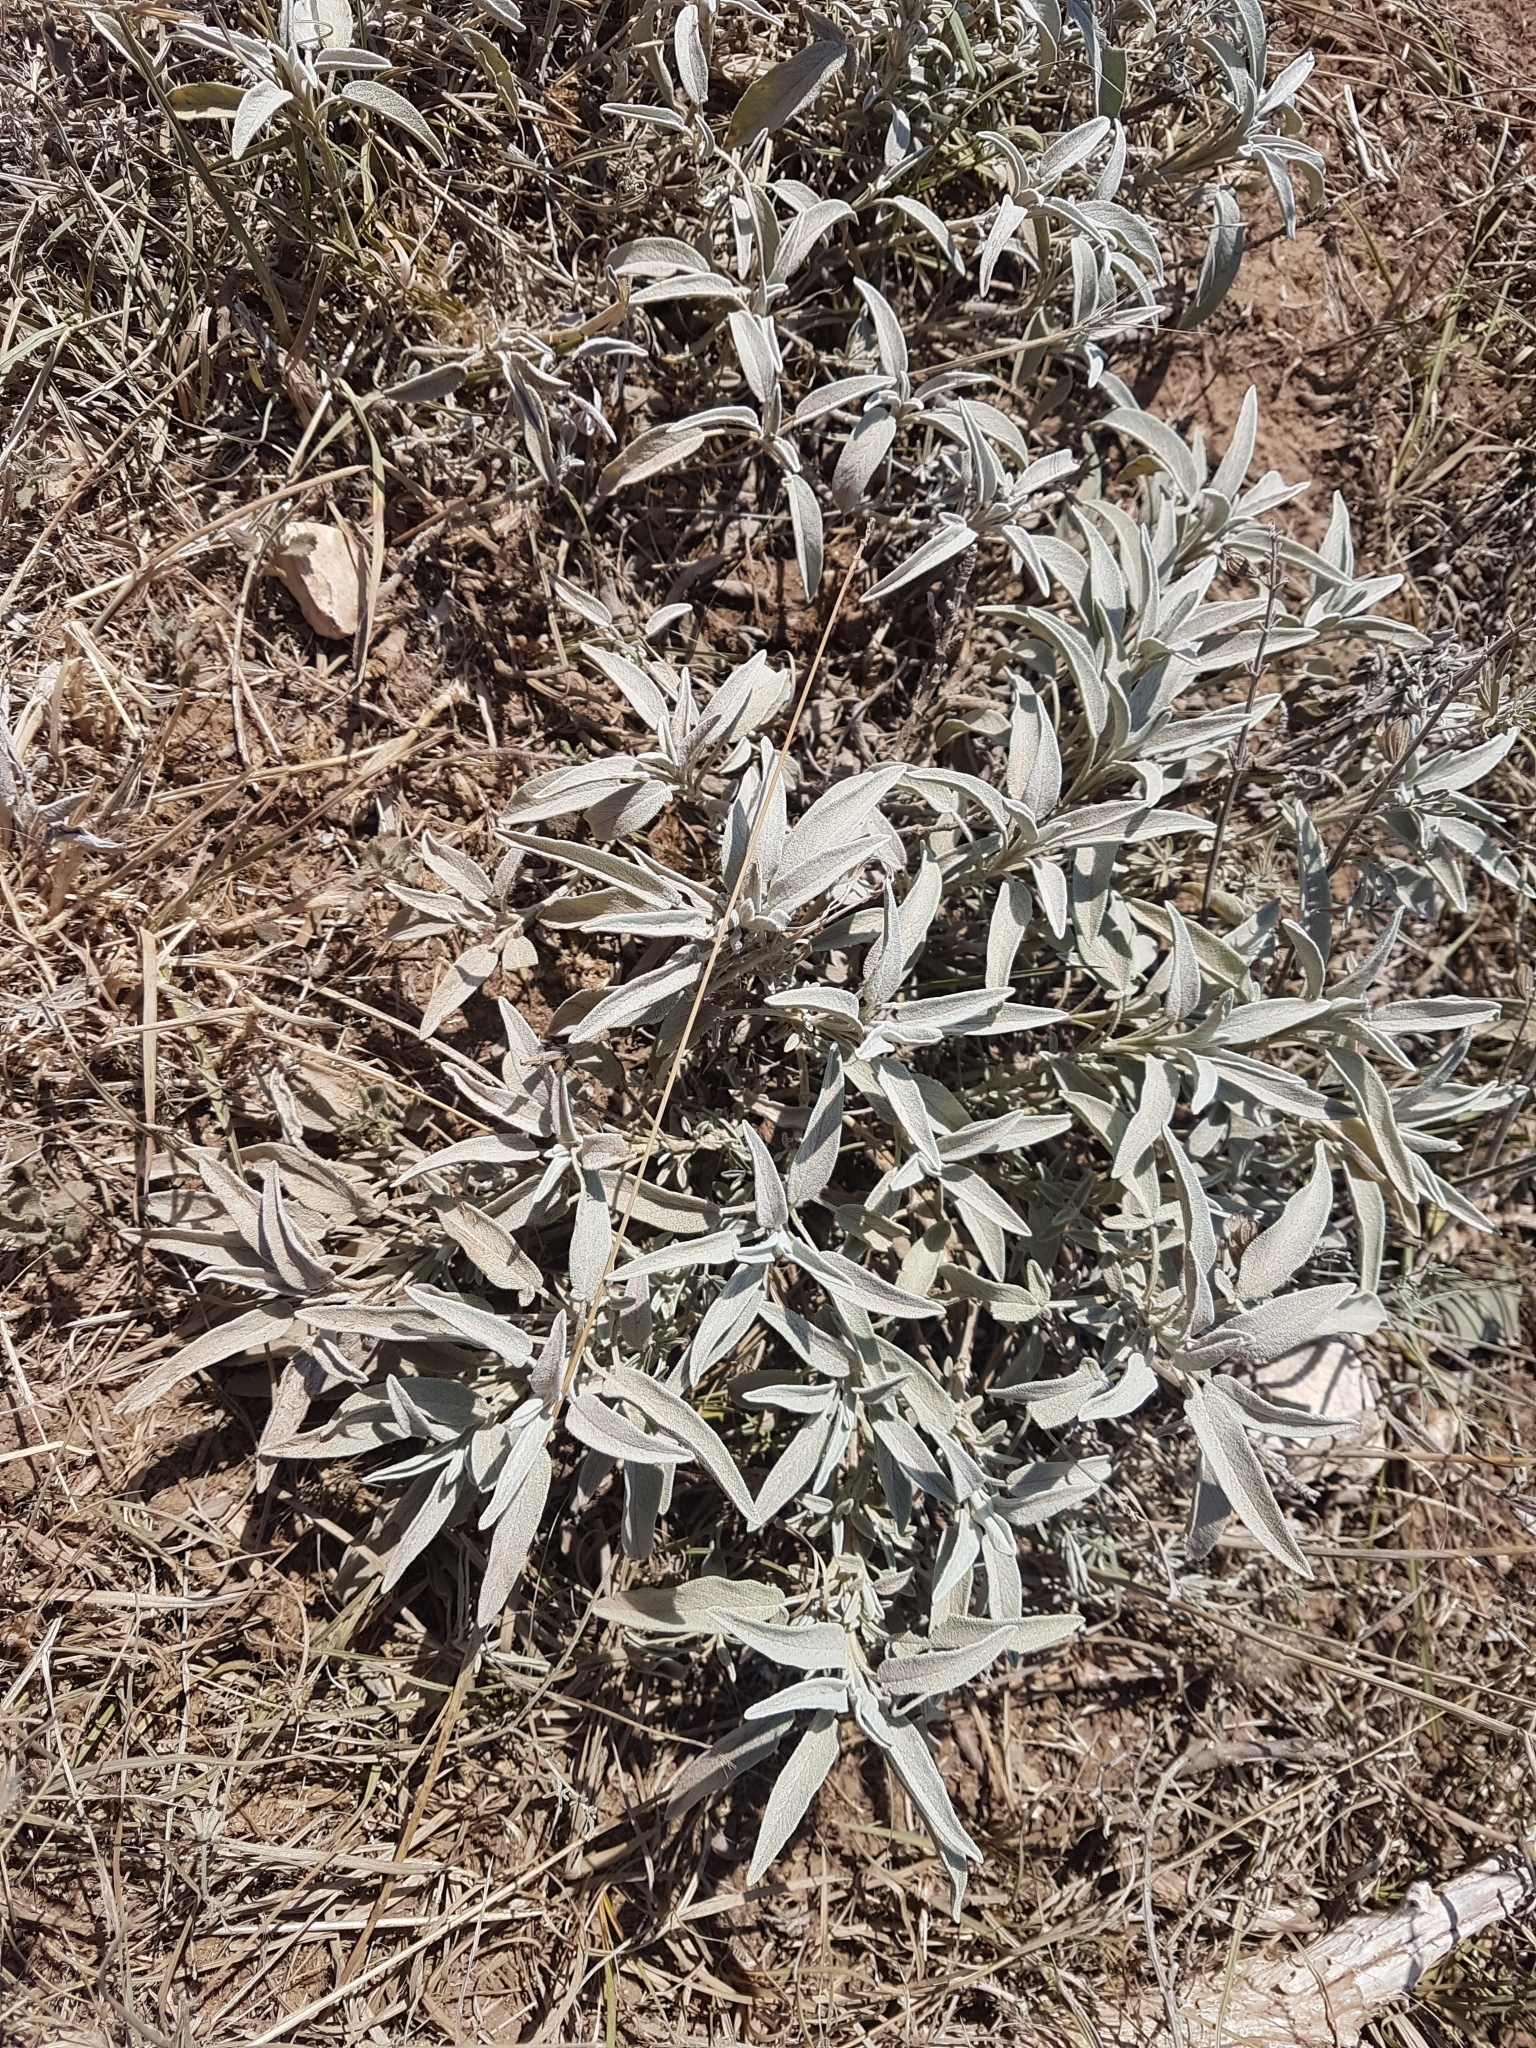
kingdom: Plantae
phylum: Tracheophyta
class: Magnoliopsida
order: Lamiales
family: Lamiaceae
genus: Salvia
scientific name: Salvia officinalis
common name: Sage
